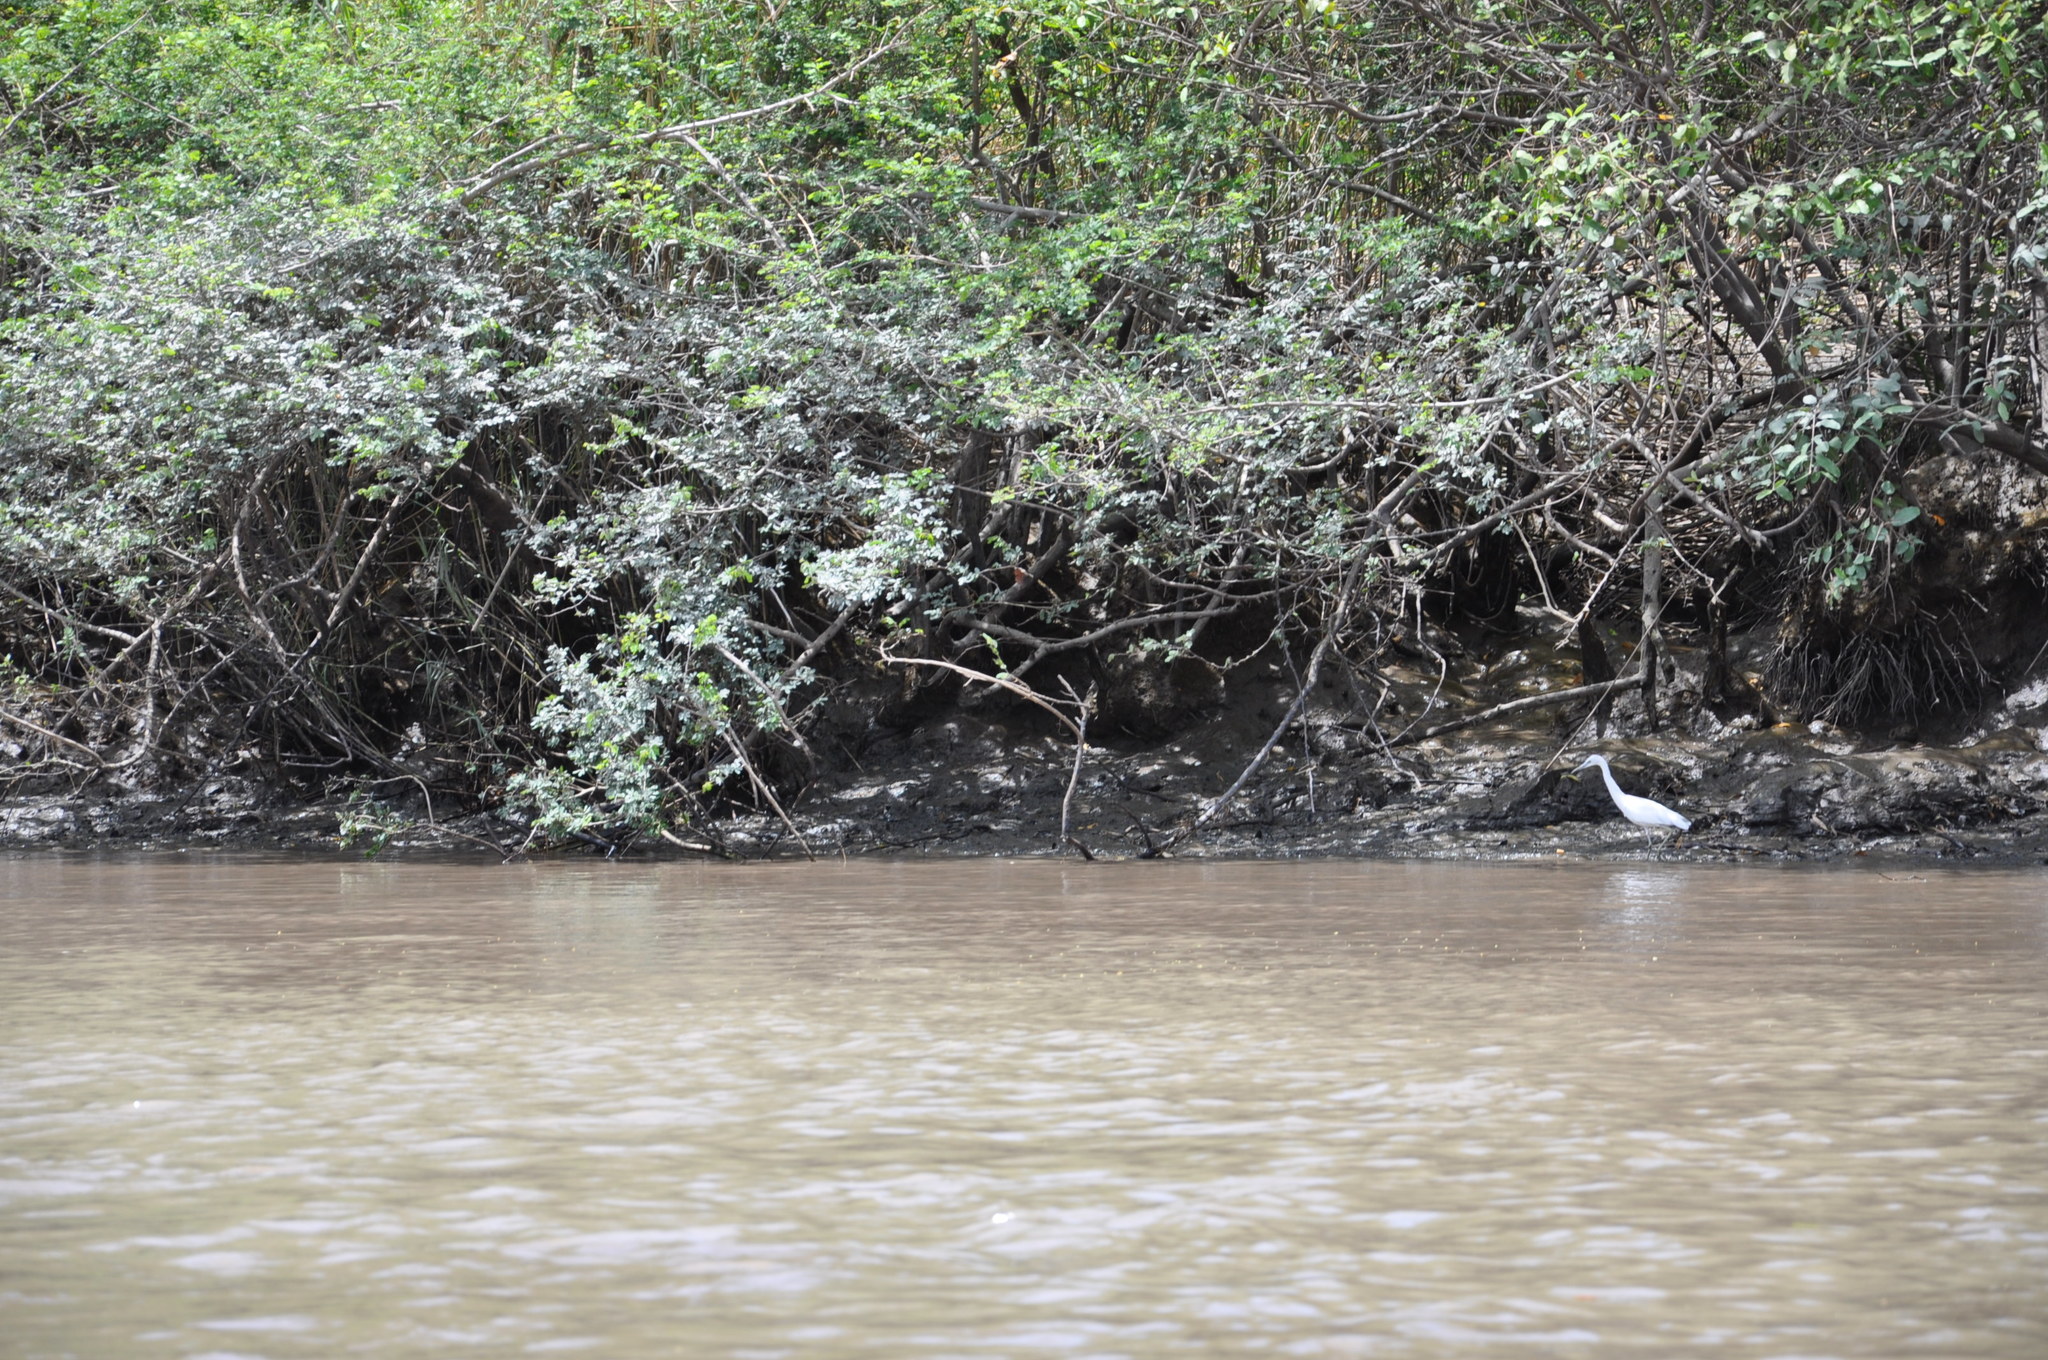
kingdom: Animalia
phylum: Chordata
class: Aves
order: Pelecaniformes
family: Ardeidae
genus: Egretta
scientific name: Egretta caerulea
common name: Little blue heron
